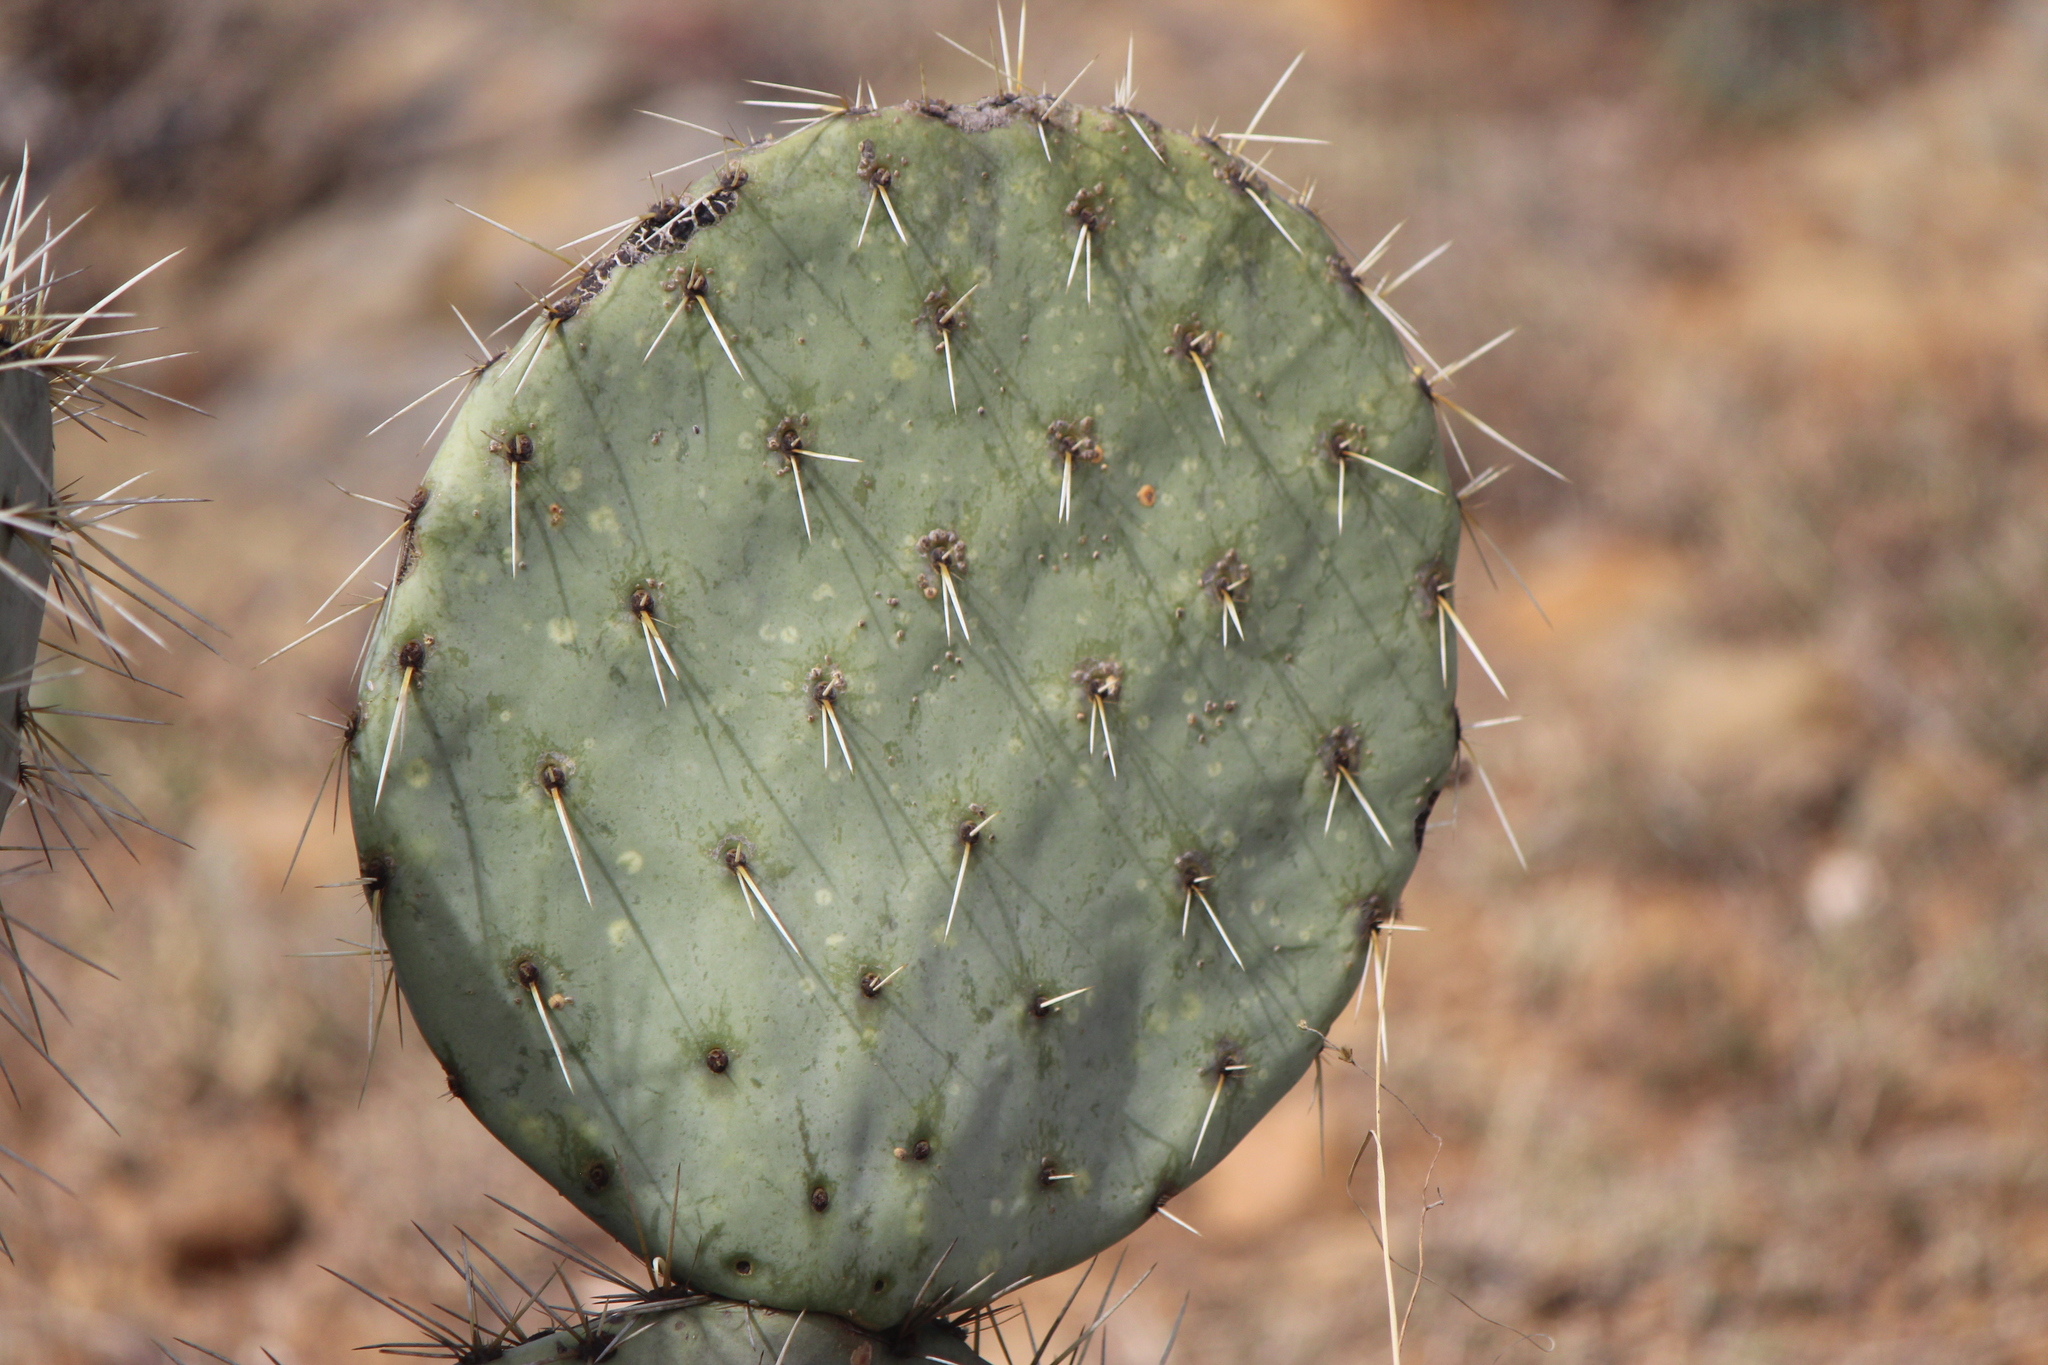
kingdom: Plantae
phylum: Tracheophyta
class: Magnoliopsida
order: Caryophyllales
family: Cactaceae
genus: Opuntia
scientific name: Opuntia robusta
